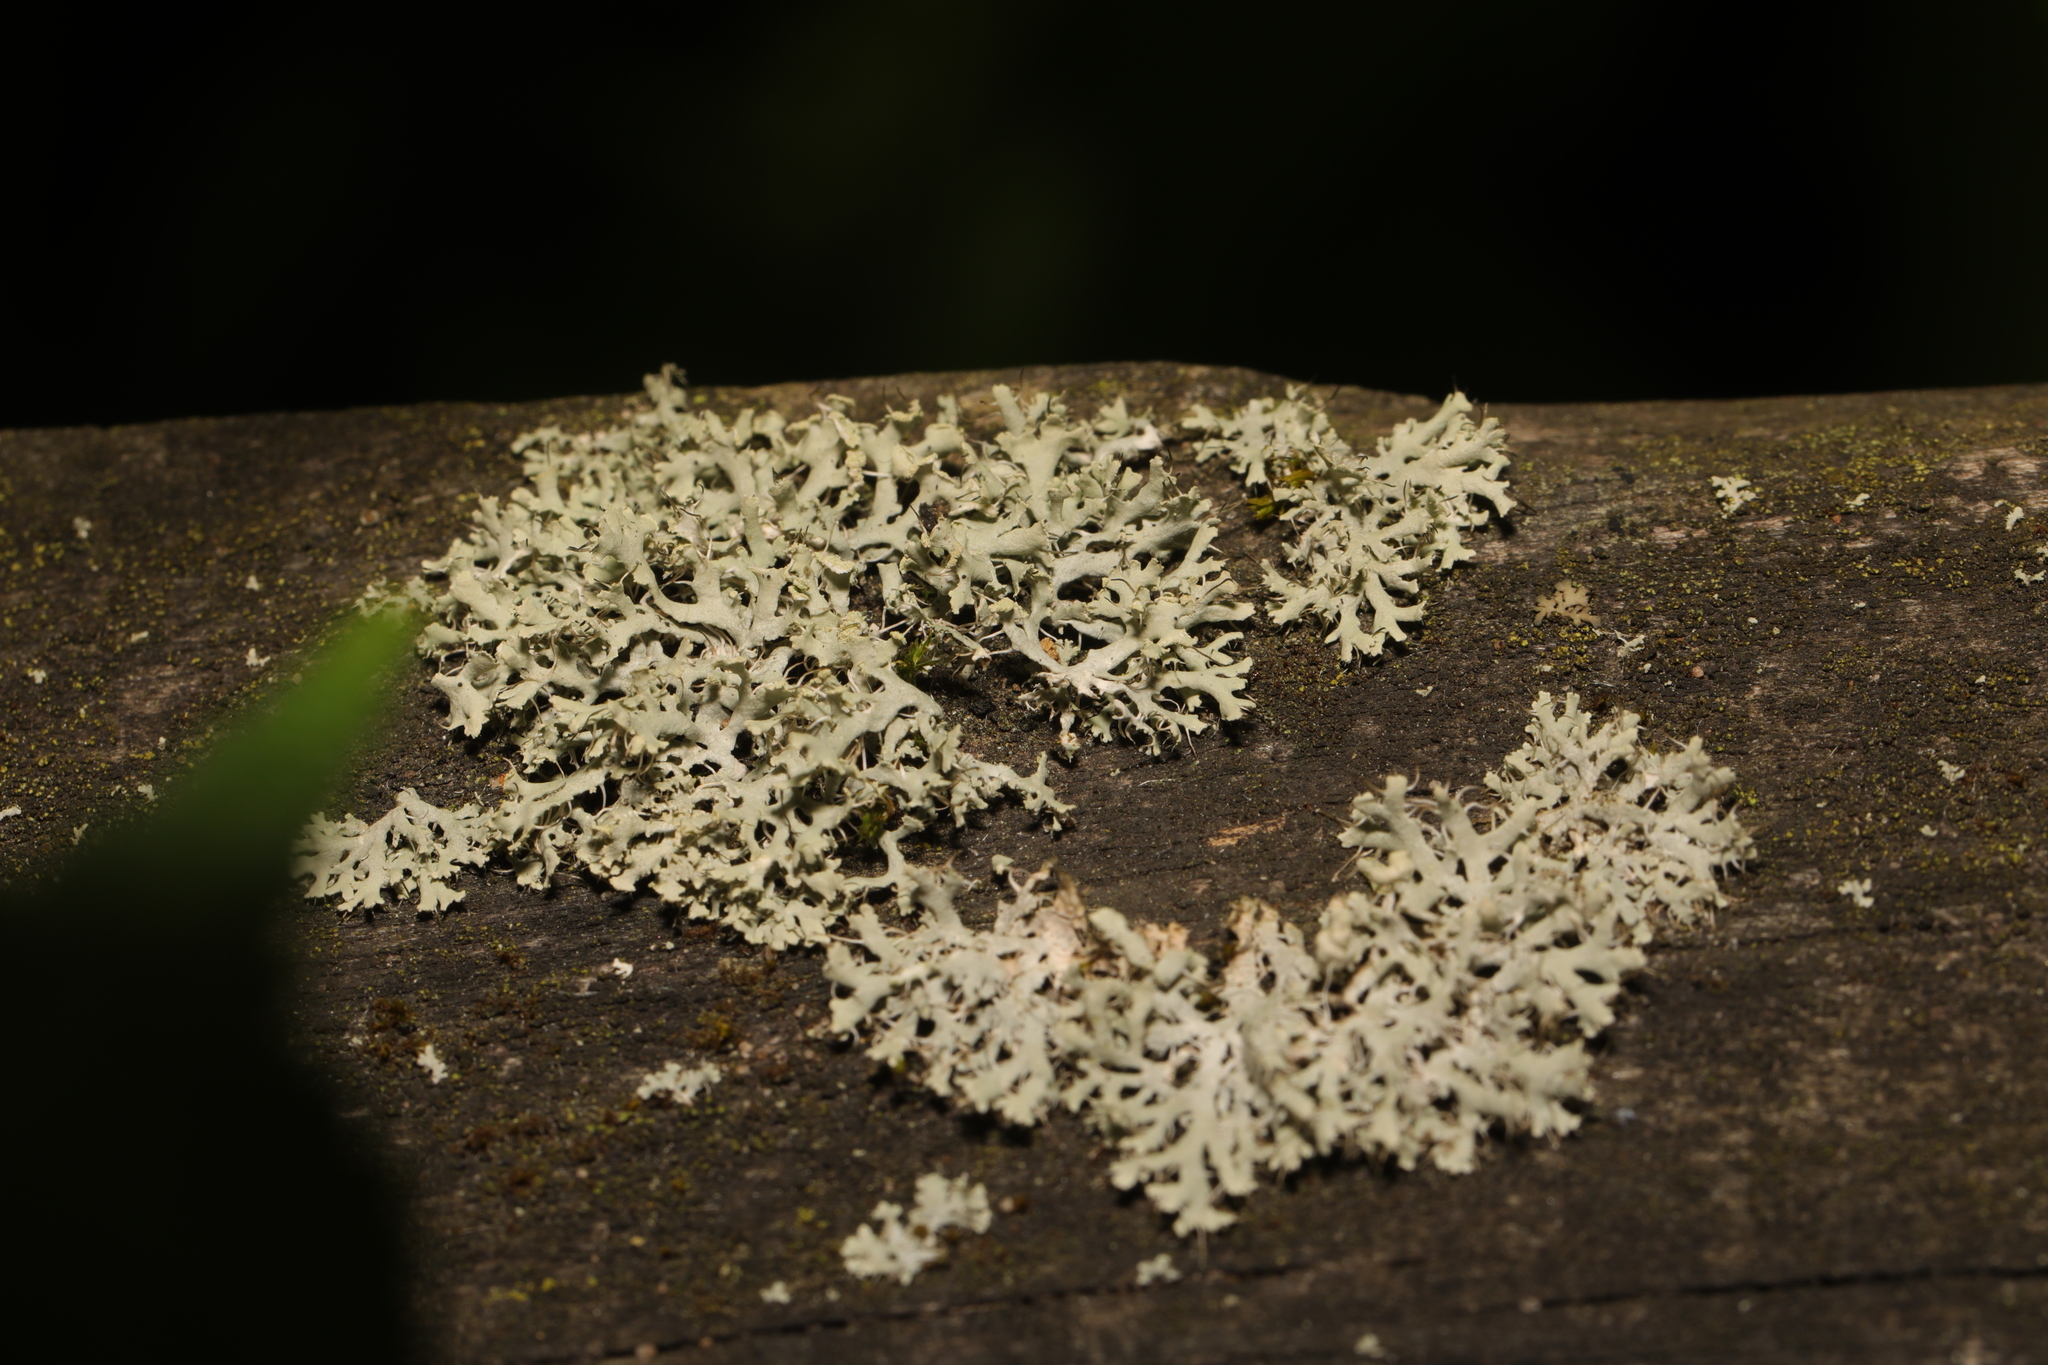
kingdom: Fungi
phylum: Ascomycota
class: Lecanoromycetes
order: Caliciales
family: Physciaceae
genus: Physcia
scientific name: Physcia tenella
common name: Fringed rosette lichen
